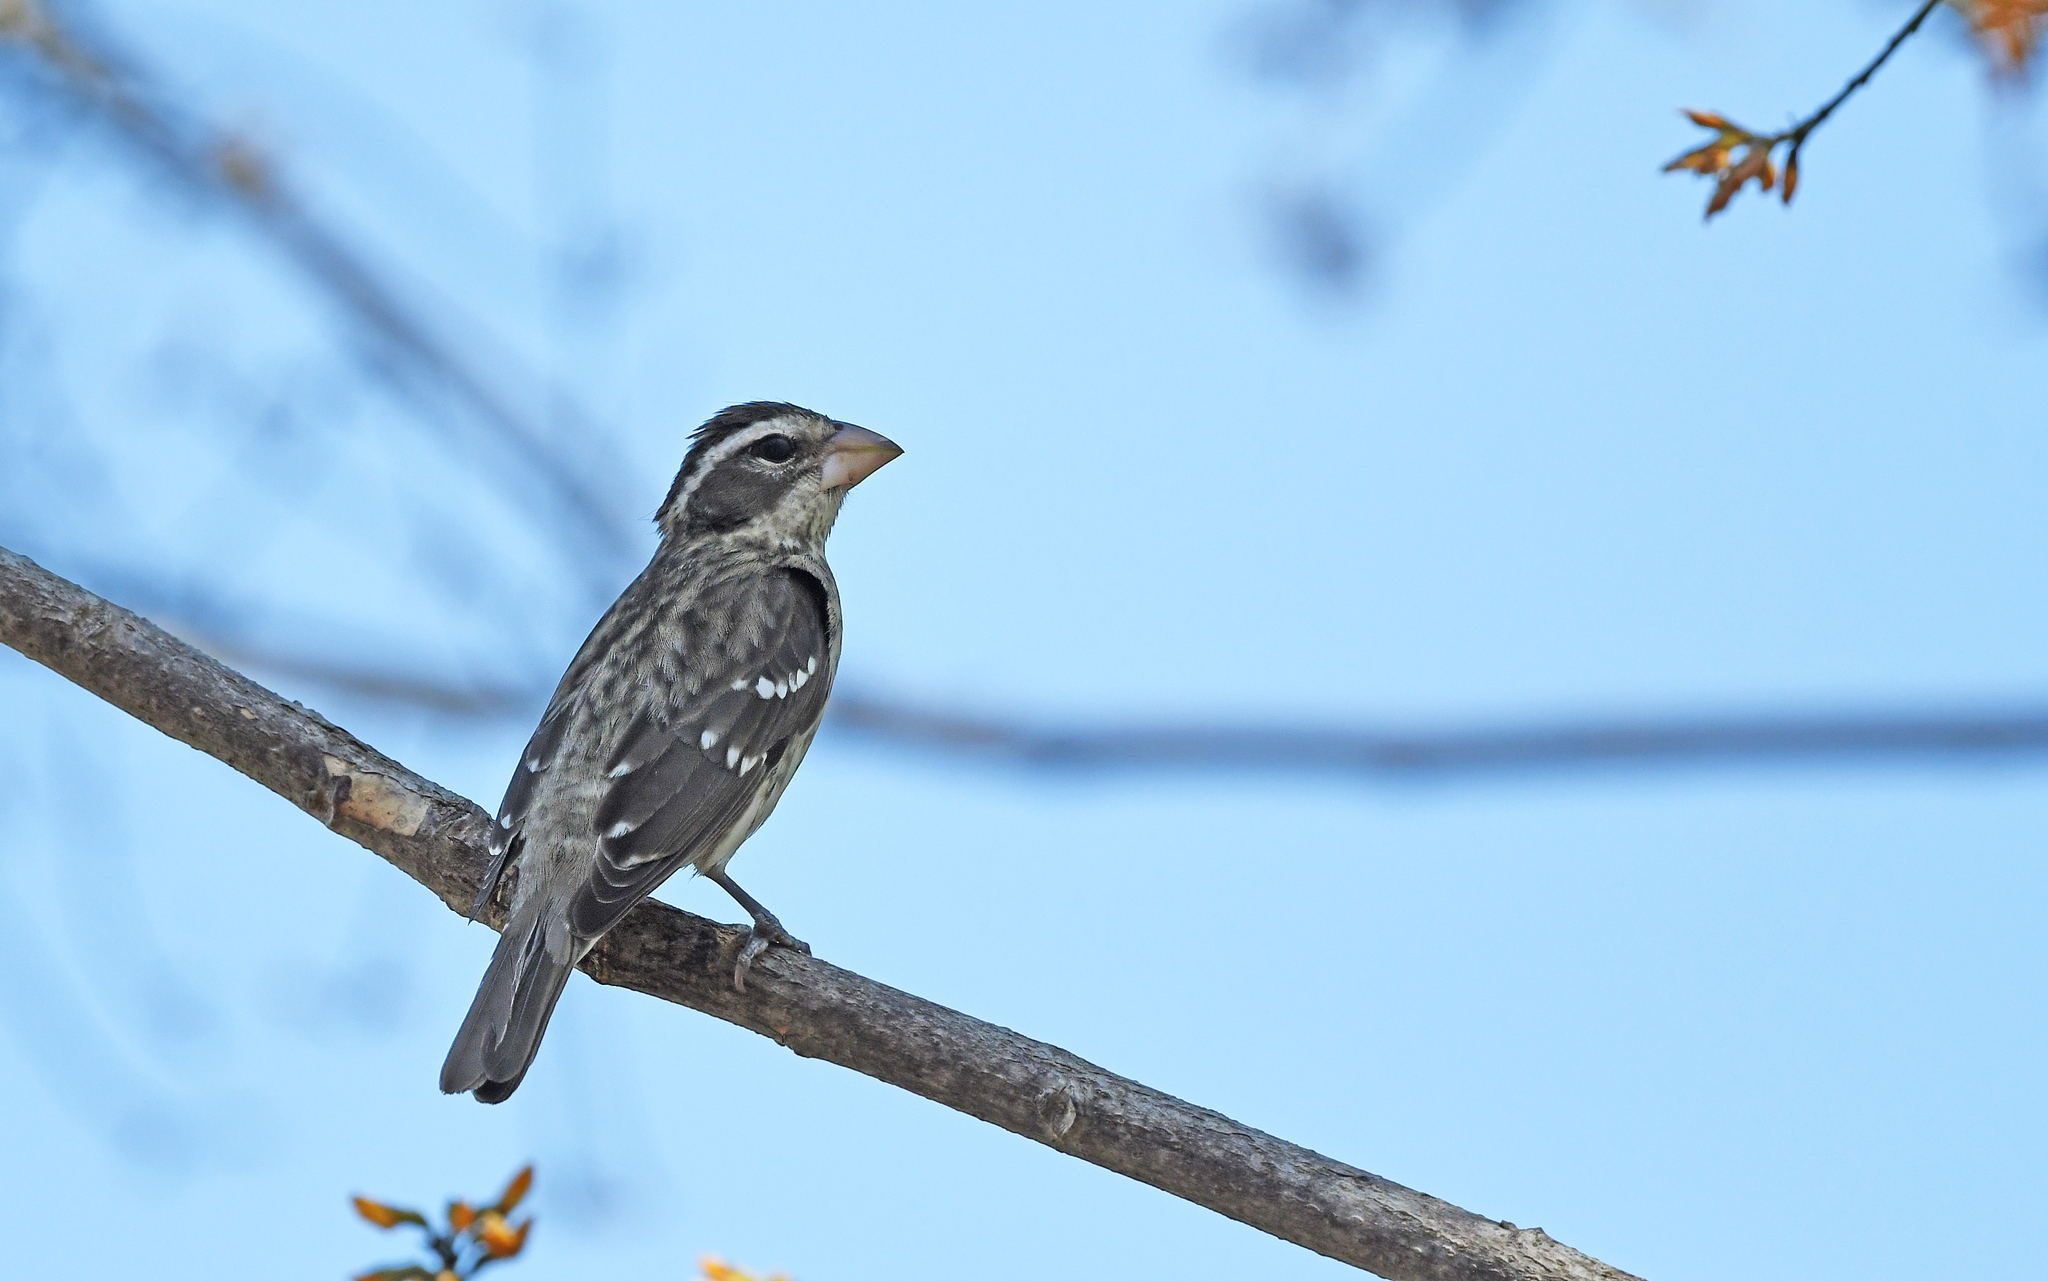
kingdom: Animalia
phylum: Chordata
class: Aves
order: Passeriformes
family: Cardinalidae
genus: Pheucticus
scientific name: Pheucticus ludovicianus
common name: Rose-breasted grosbeak
